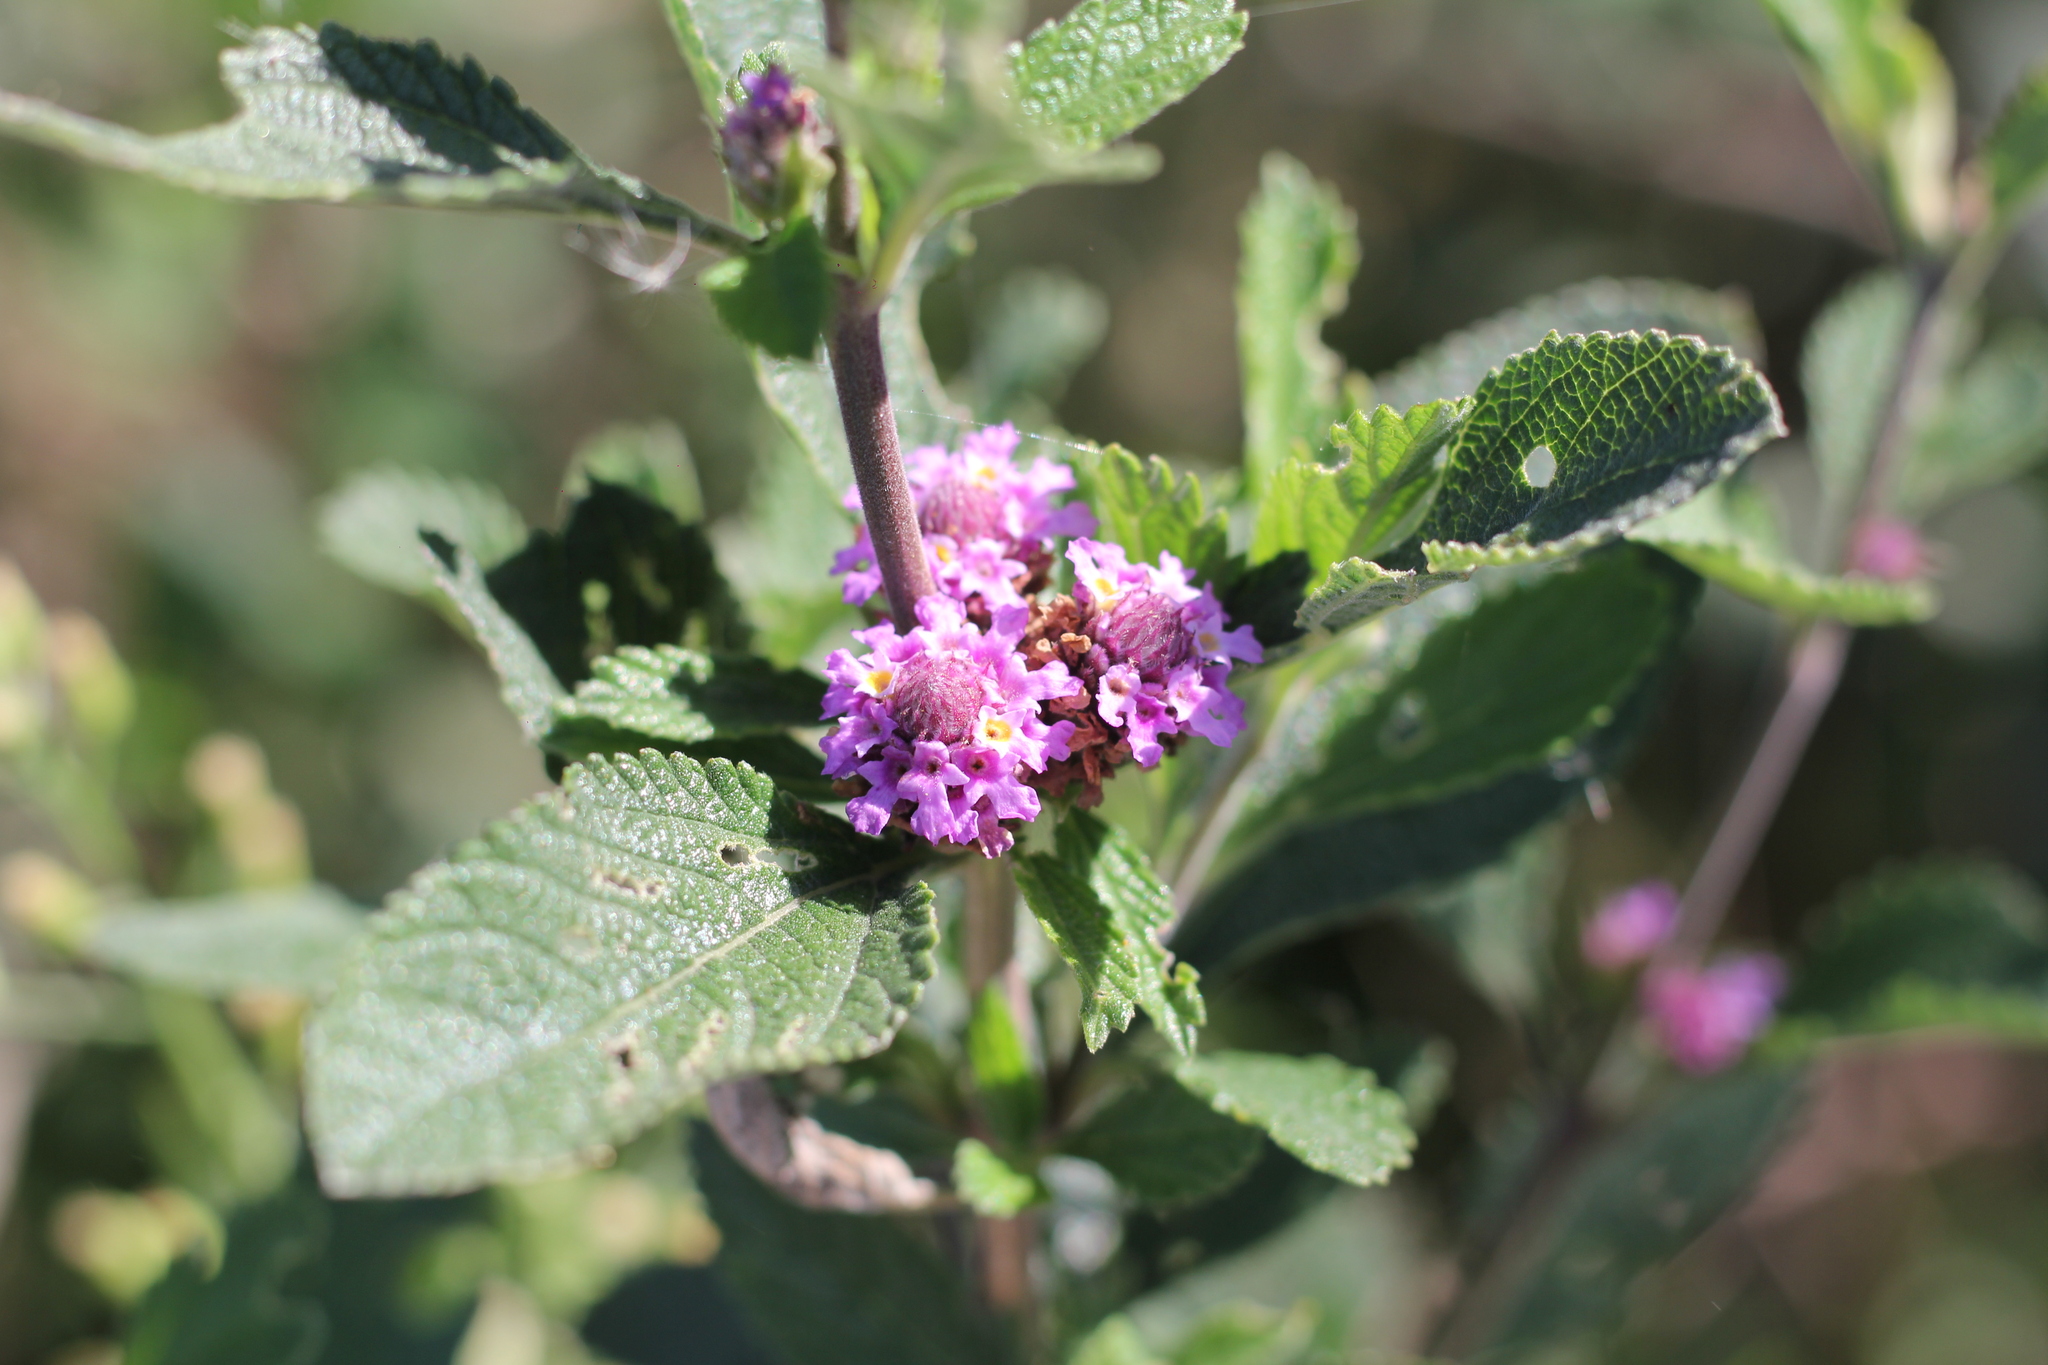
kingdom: Plantae
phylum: Tracheophyta
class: Magnoliopsida
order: Lamiales
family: Verbenaceae
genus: Lippia
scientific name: Lippia alba
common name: Bushy matgrass
